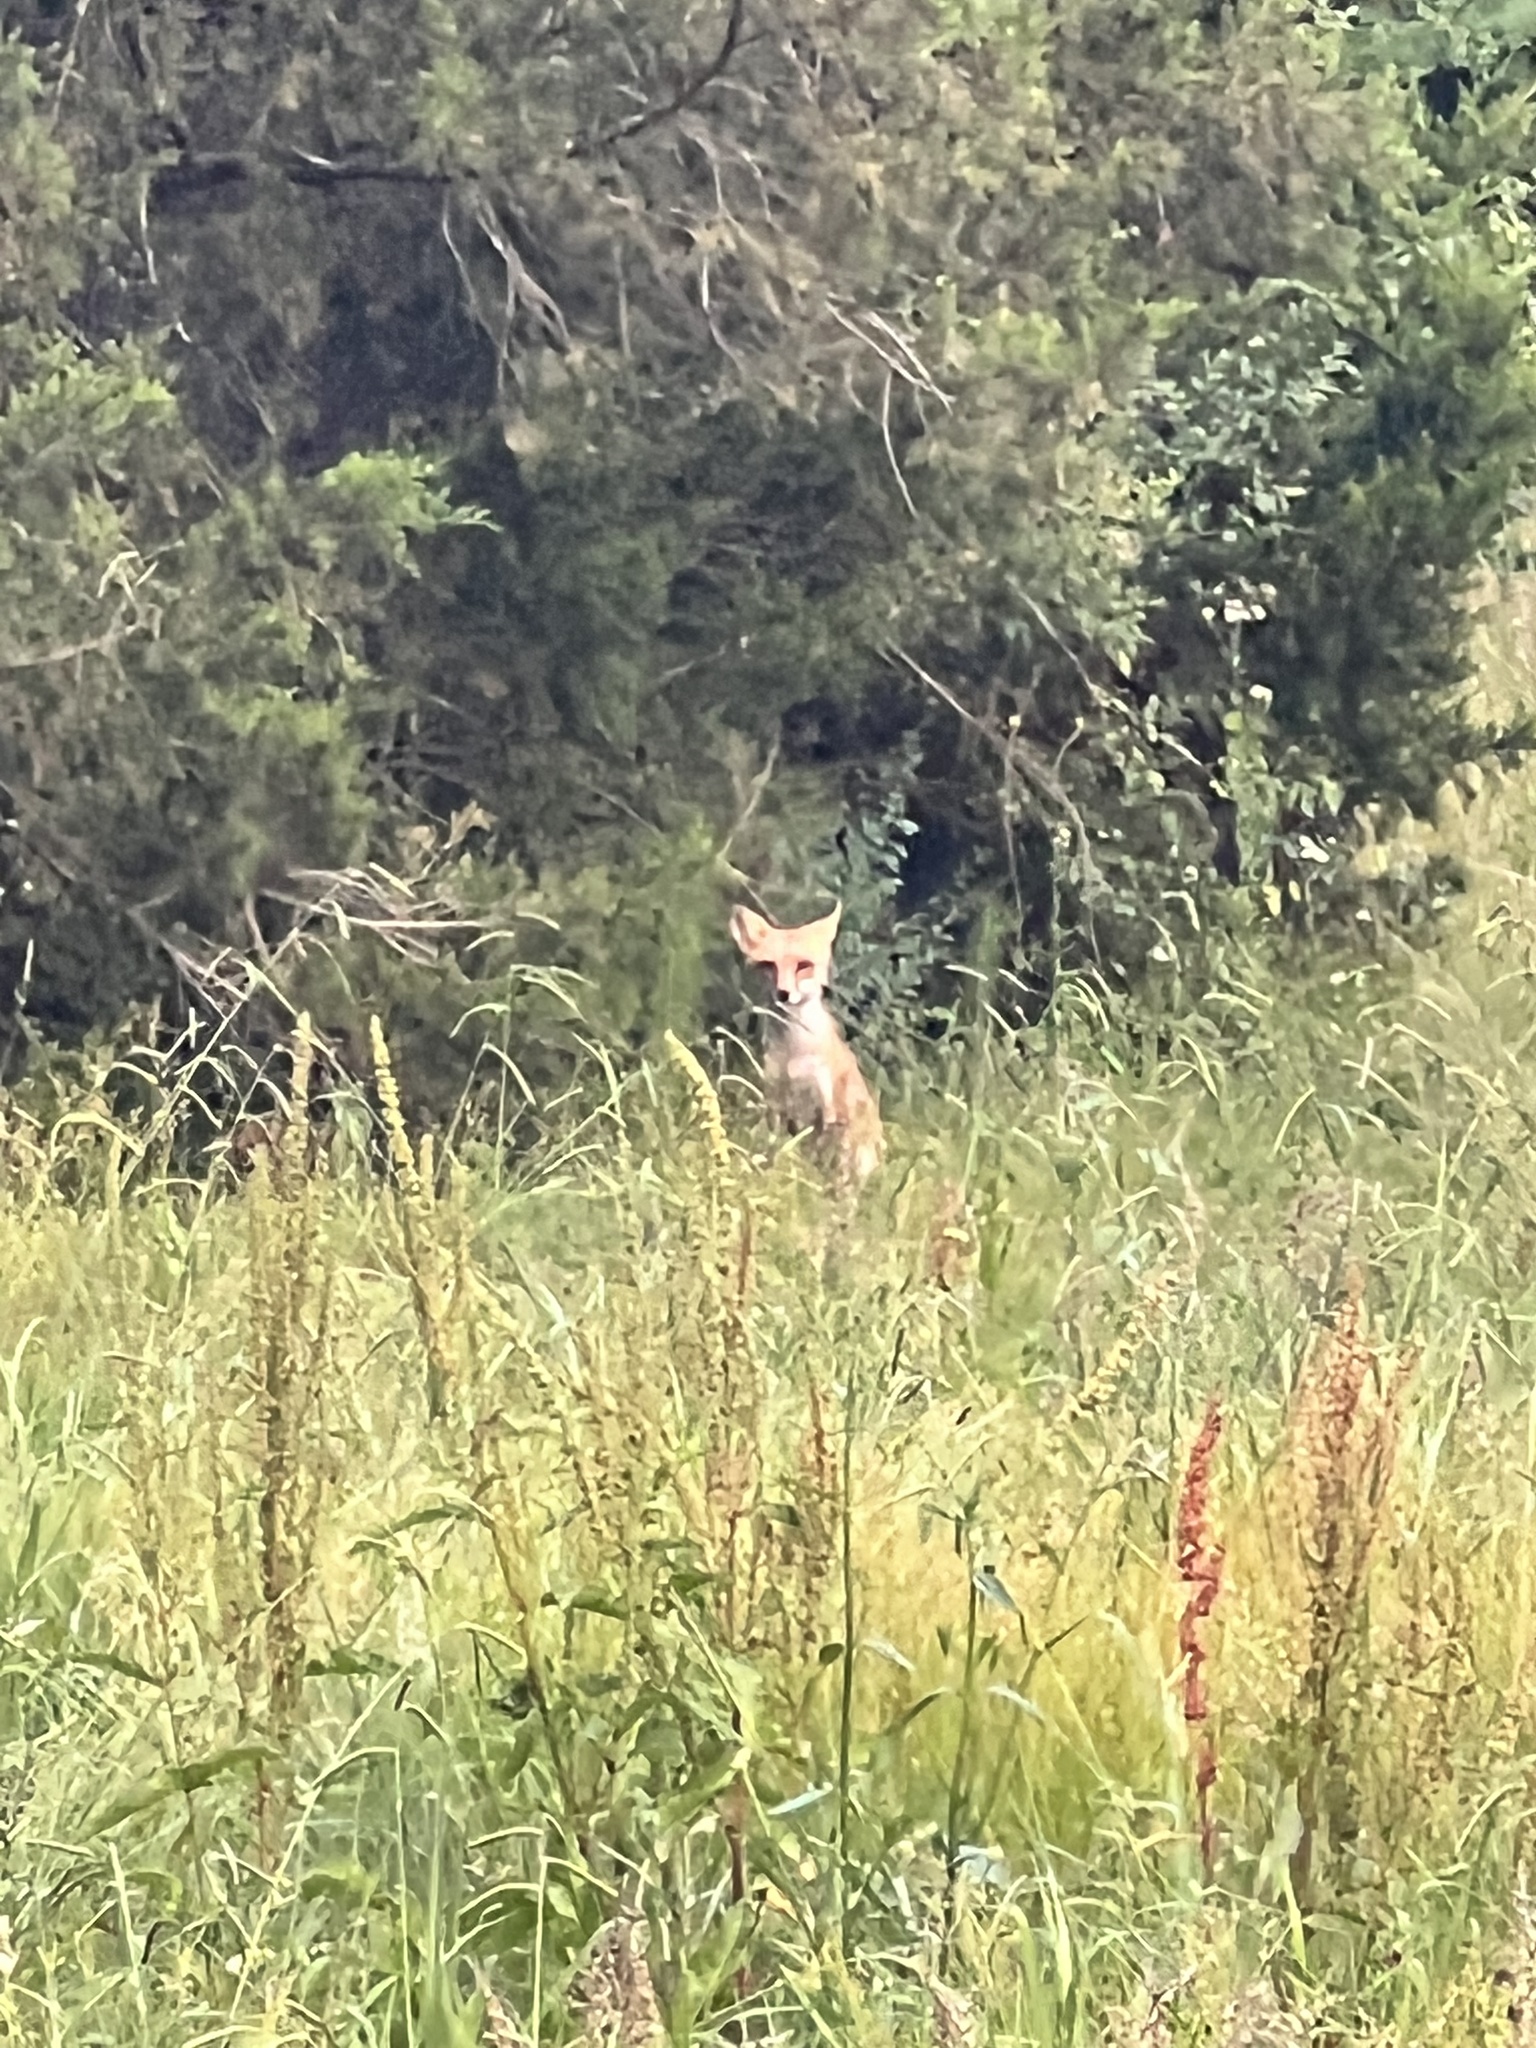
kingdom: Animalia
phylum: Chordata
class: Mammalia
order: Carnivora
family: Canidae
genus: Vulpes
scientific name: Vulpes vulpes
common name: Red fox
